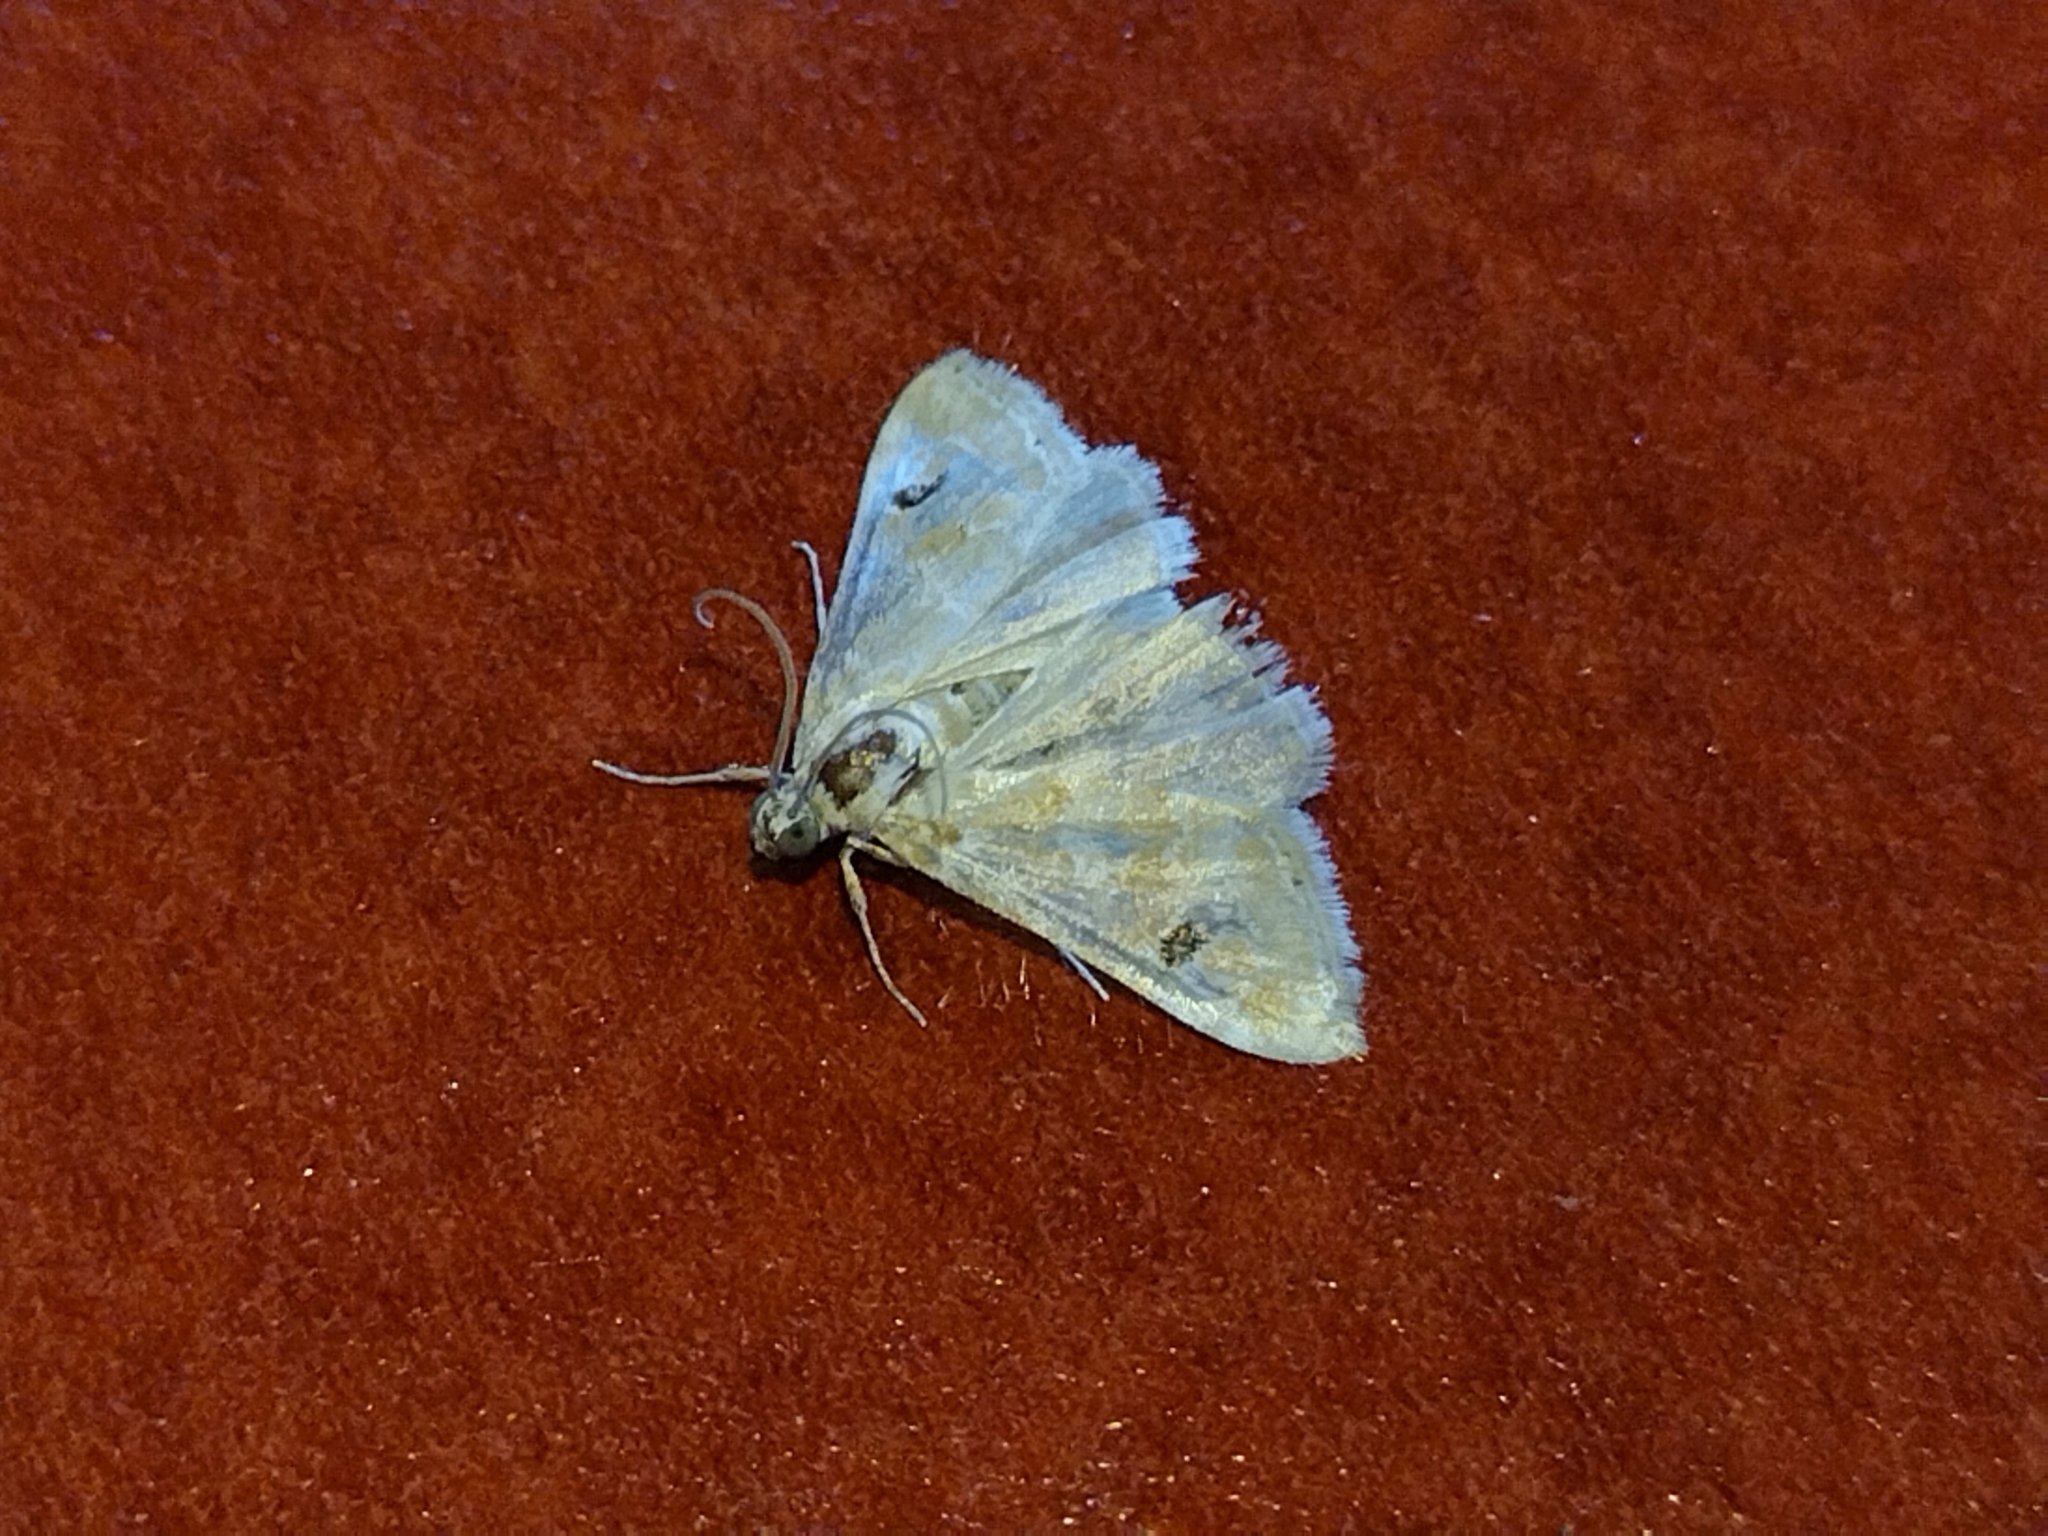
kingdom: Animalia
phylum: Arthropoda
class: Insecta
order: Lepidoptera
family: Crambidae
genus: Hellula
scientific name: Hellula rogatalis
